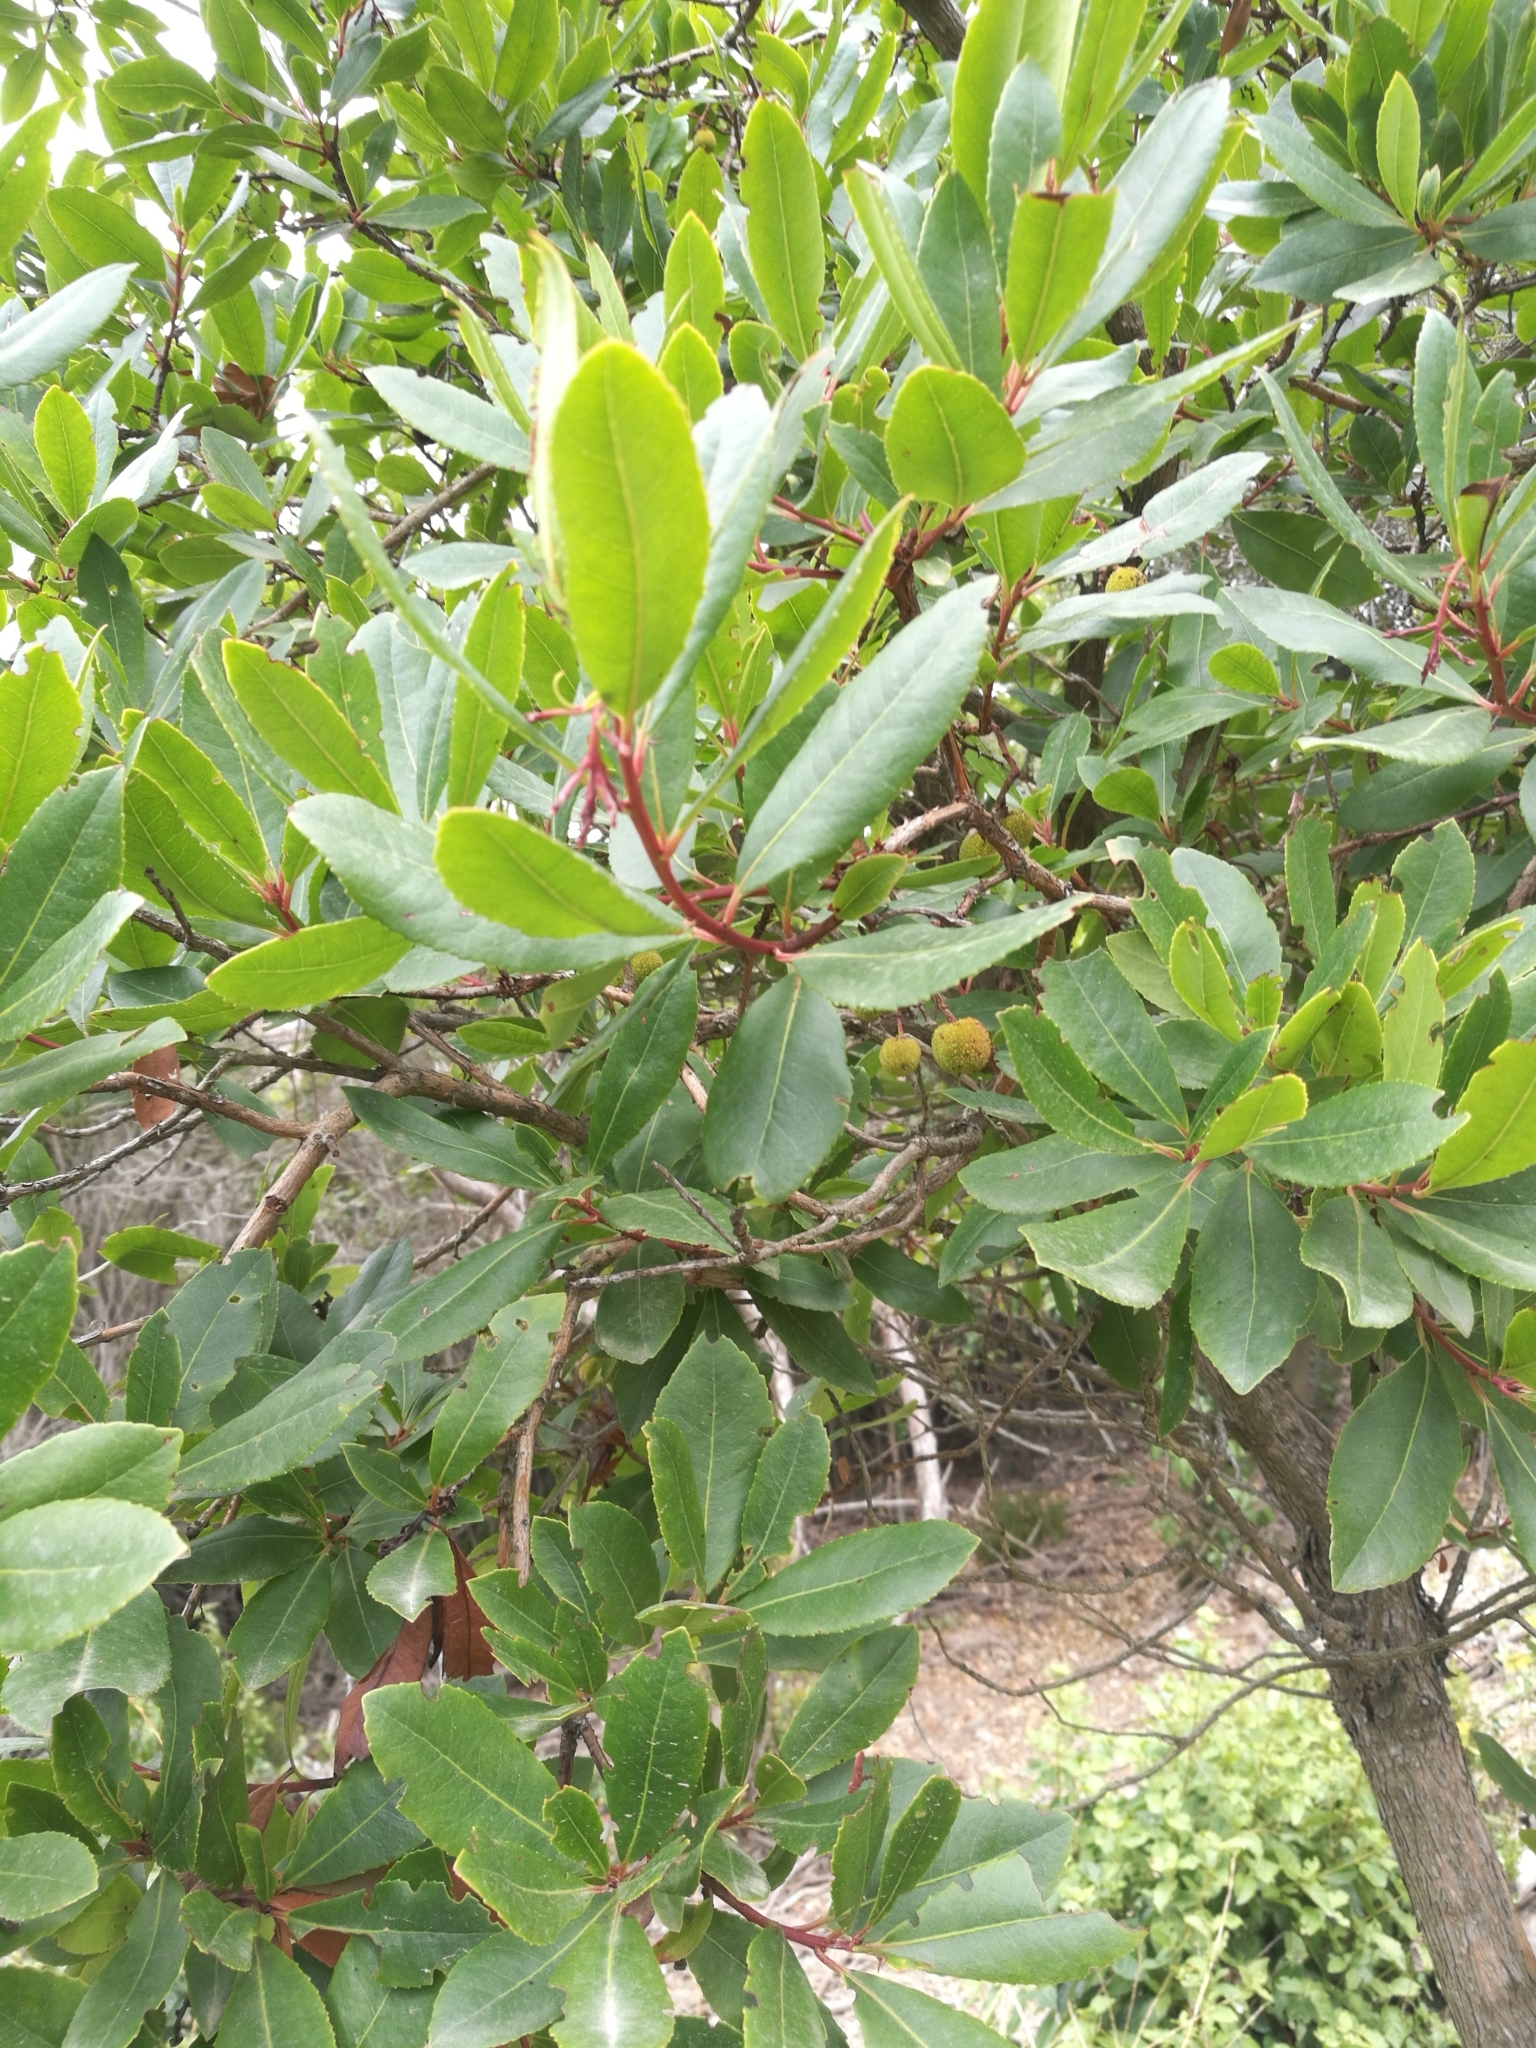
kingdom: Plantae
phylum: Tracheophyta
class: Magnoliopsida
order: Ericales
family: Ericaceae
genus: Arbutus
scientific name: Arbutus unedo
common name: Strawberry-tree
